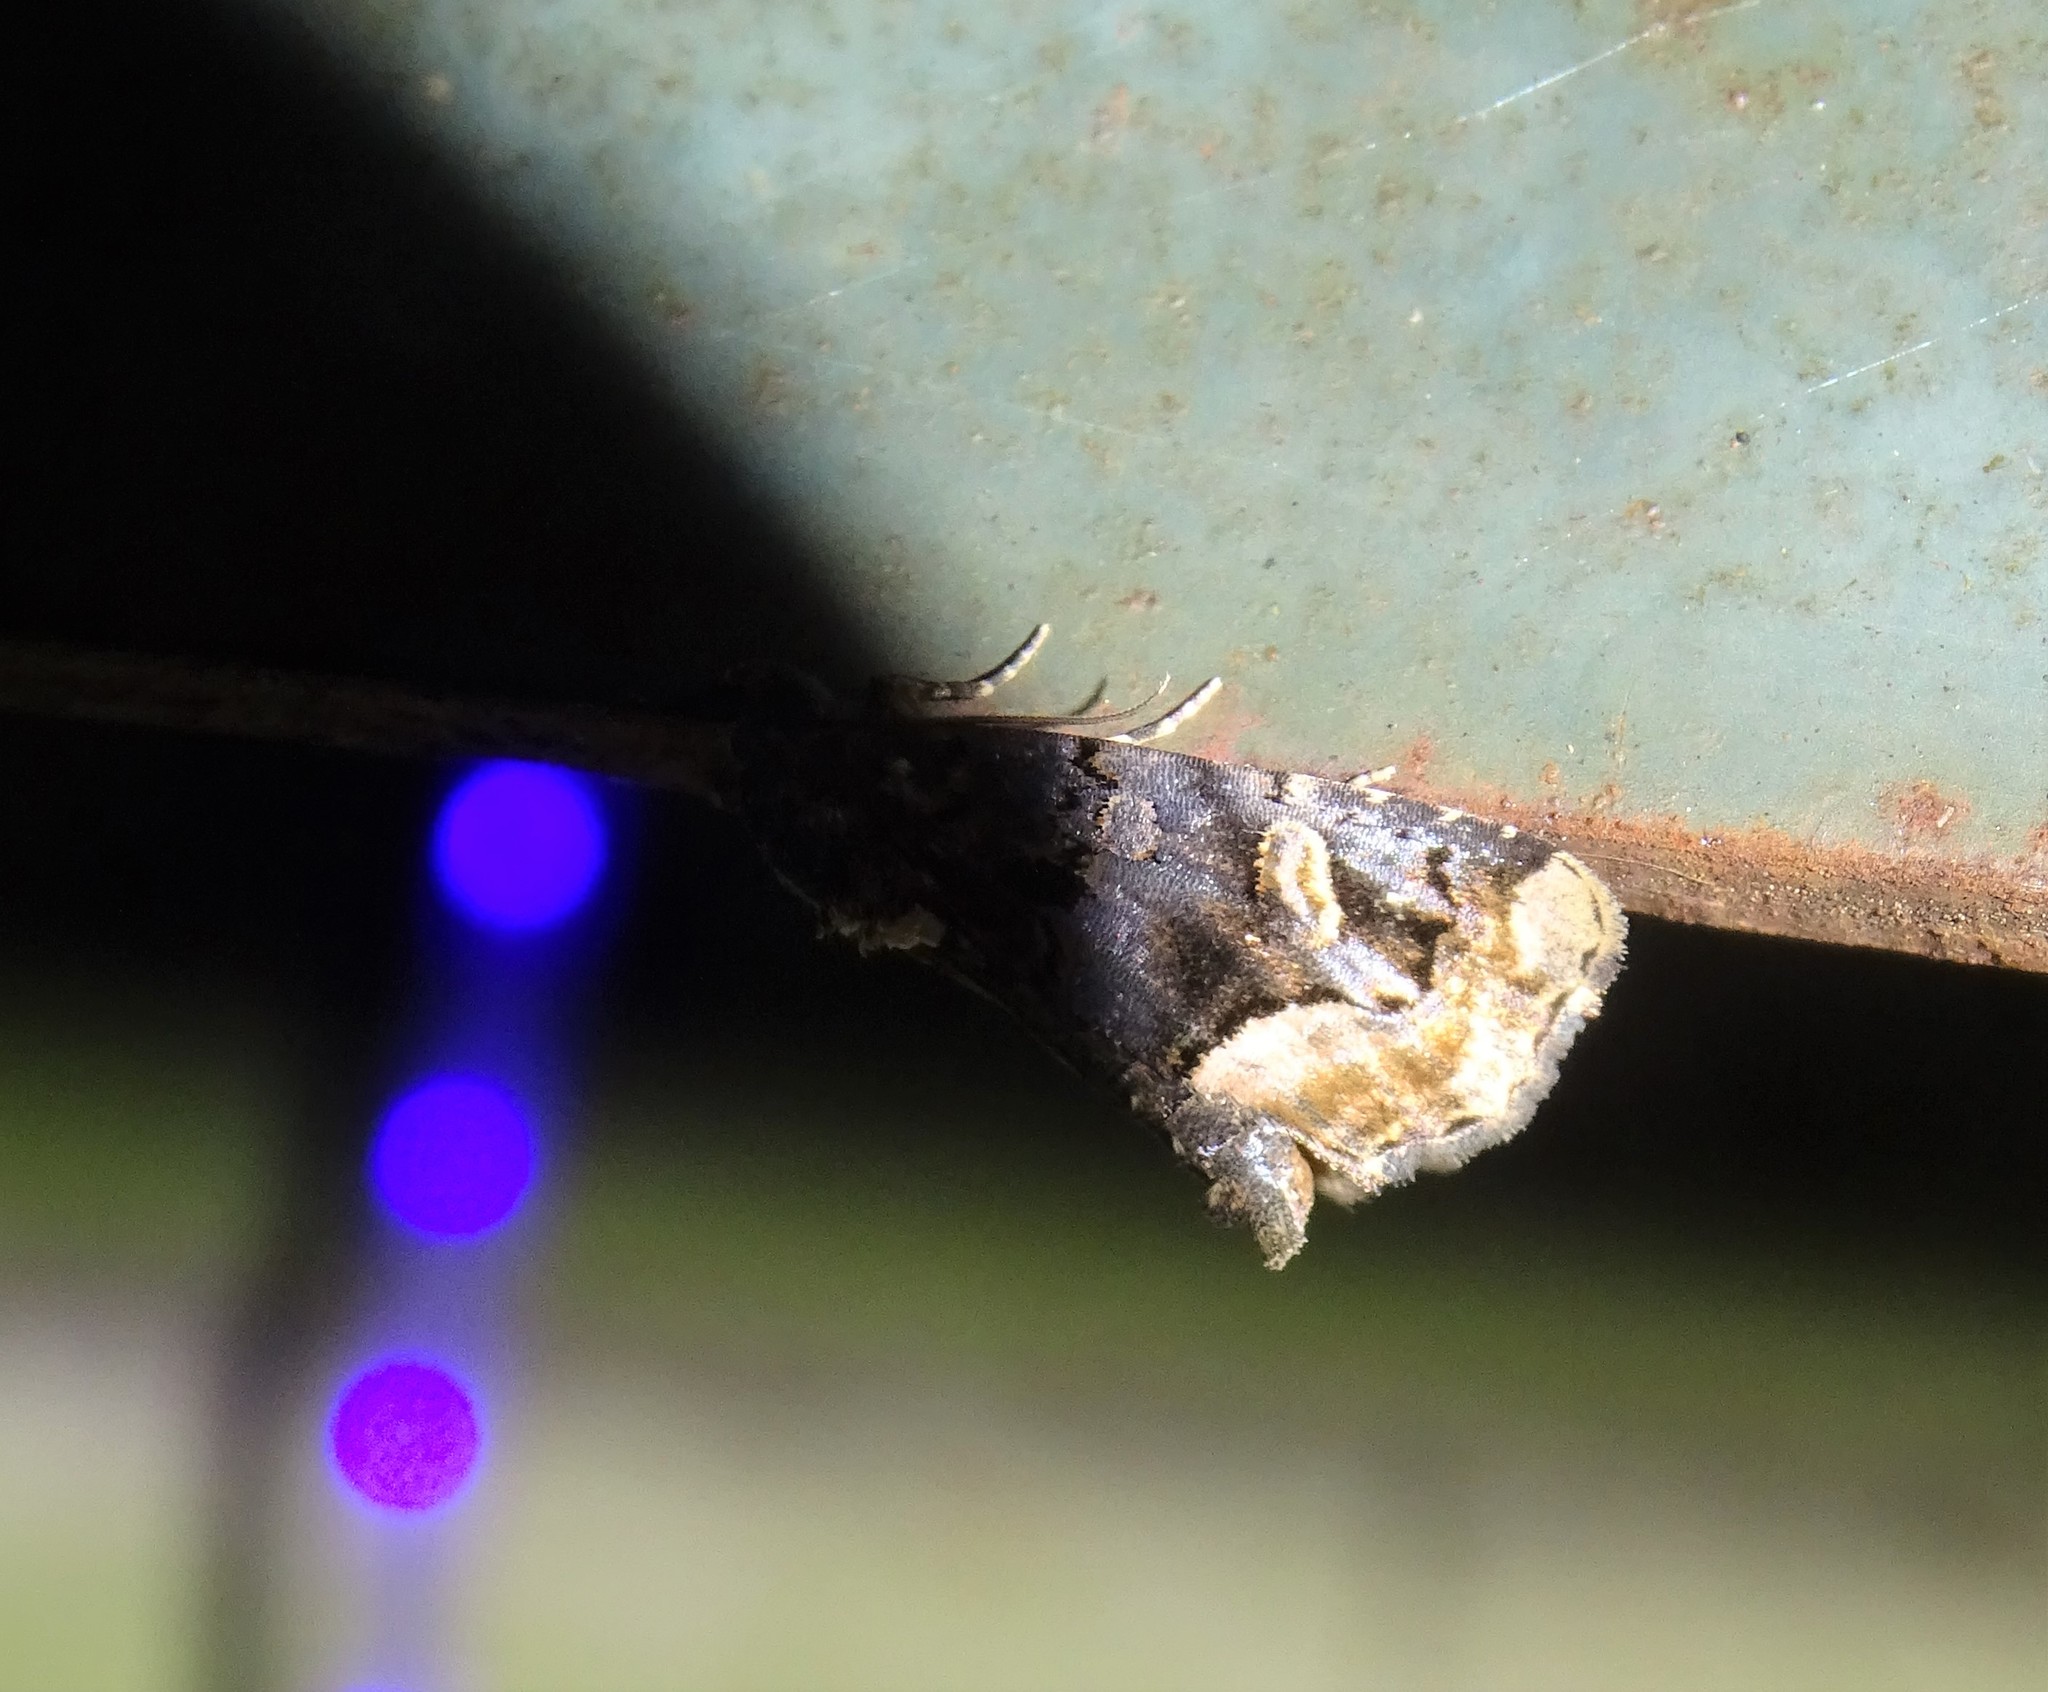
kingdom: Animalia
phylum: Arthropoda
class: Insecta
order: Lepidoptera
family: Noctuidae
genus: Homophoberia
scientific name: Homophoberia apicosa
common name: Black wedge-spot
